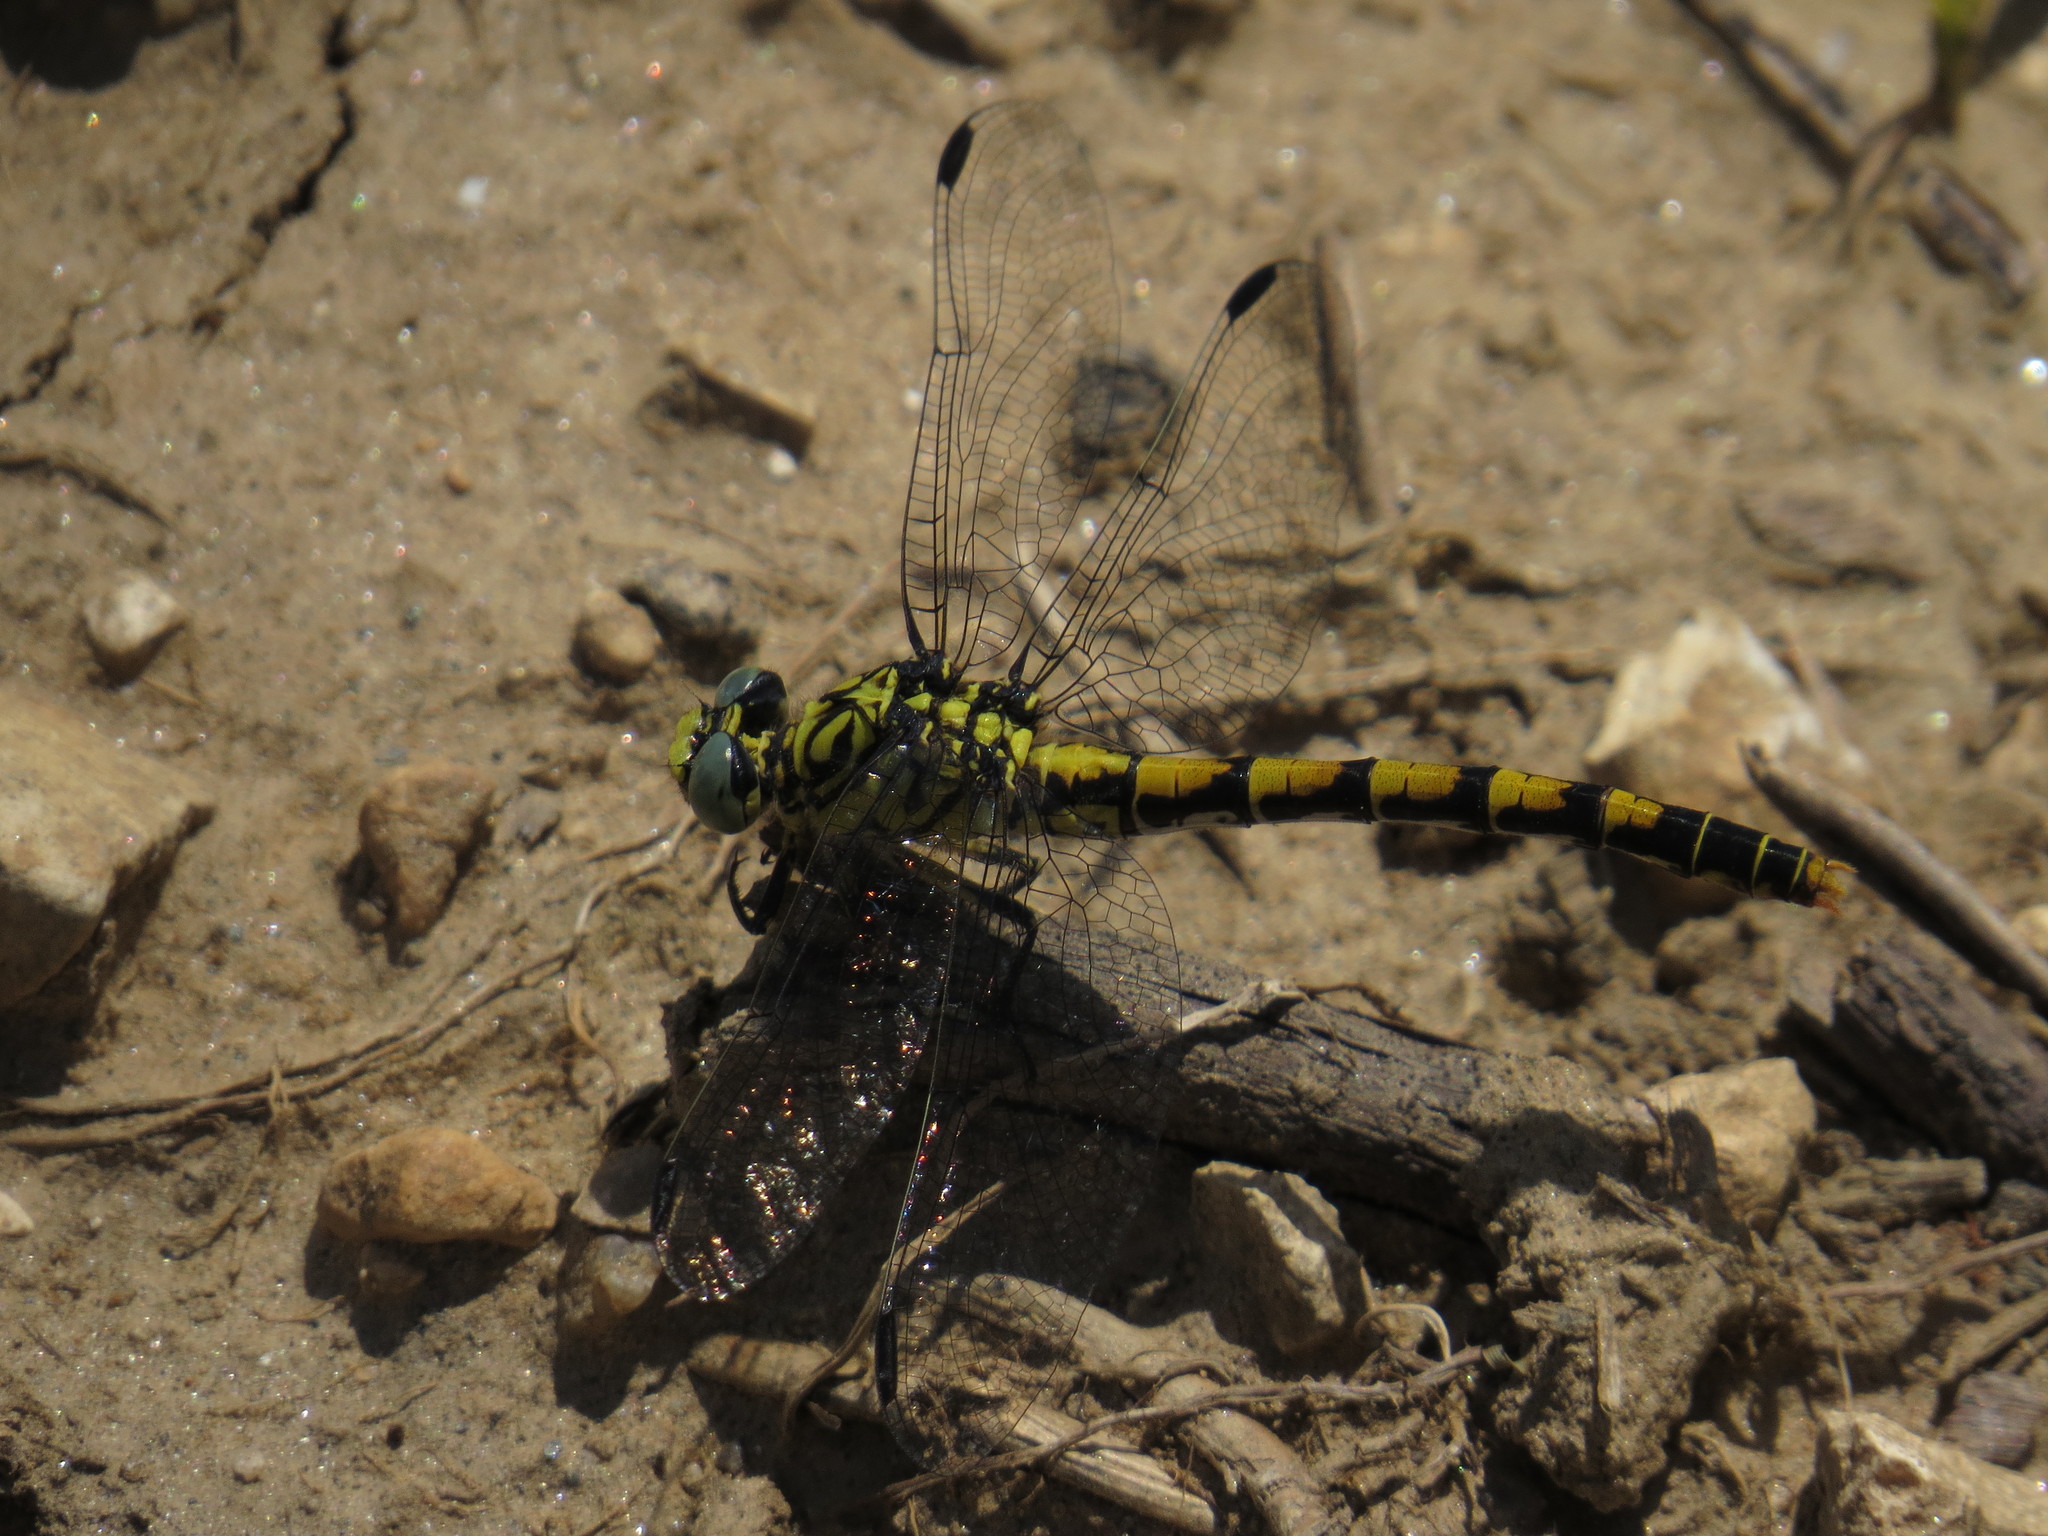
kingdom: Animalia
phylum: Arthropoda
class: Insecta
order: Odonata
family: Gomphidae
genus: Onychogomphus
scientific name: Onychogomphus forcipatus
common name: Small pincertail
